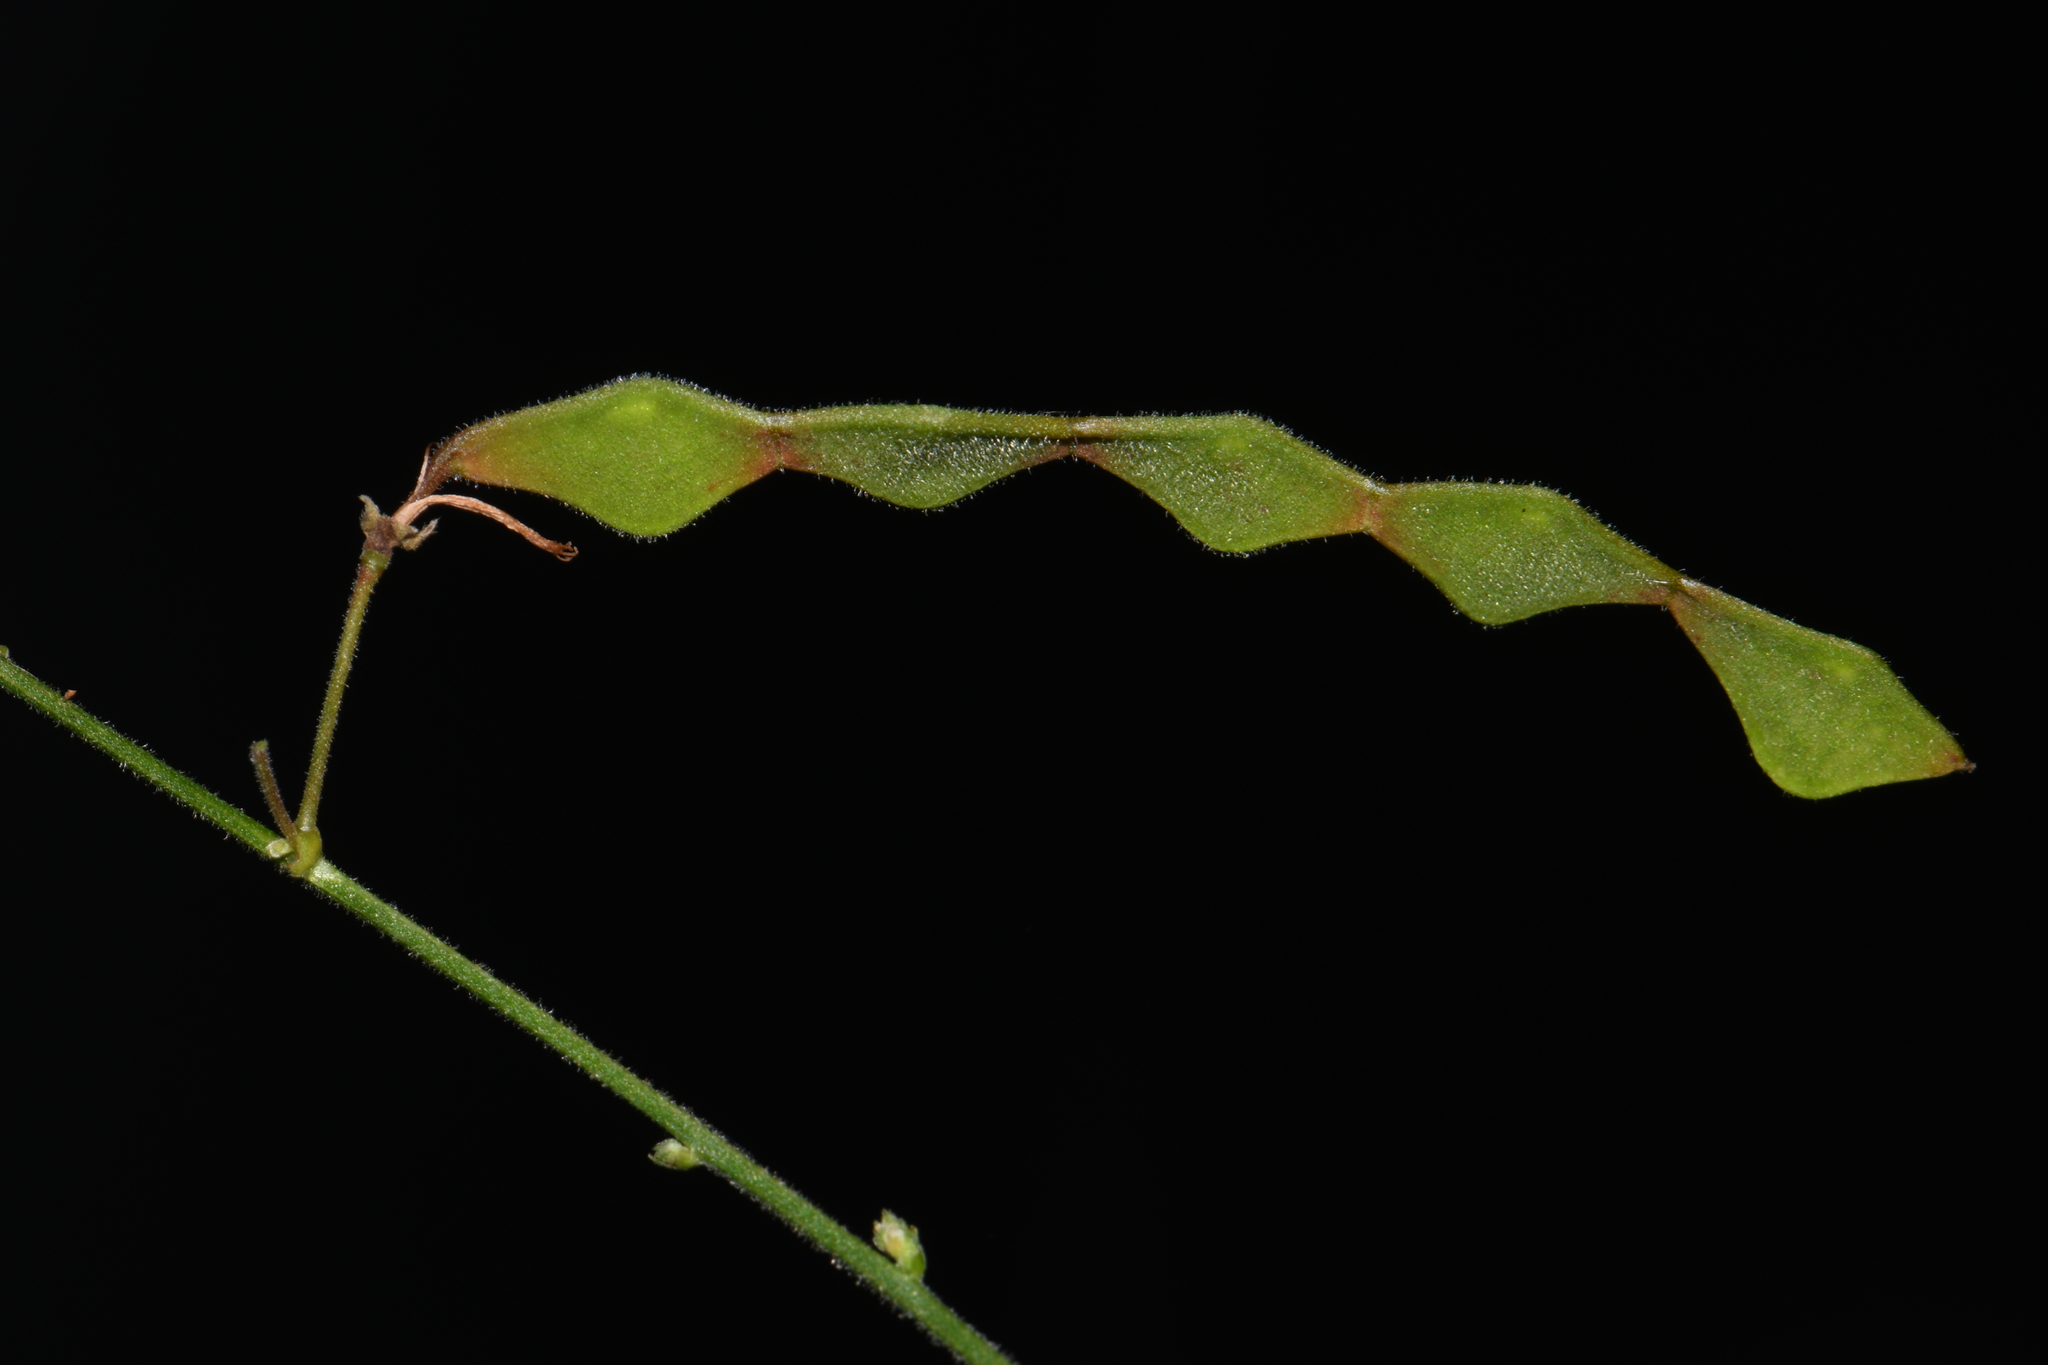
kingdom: Plantae
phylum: Tracheophyta
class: Magnoliopsida
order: Fabales
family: Fabaceae
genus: Desmodium
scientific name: Desmodium perplexum
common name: Perplexed tick trefoil
